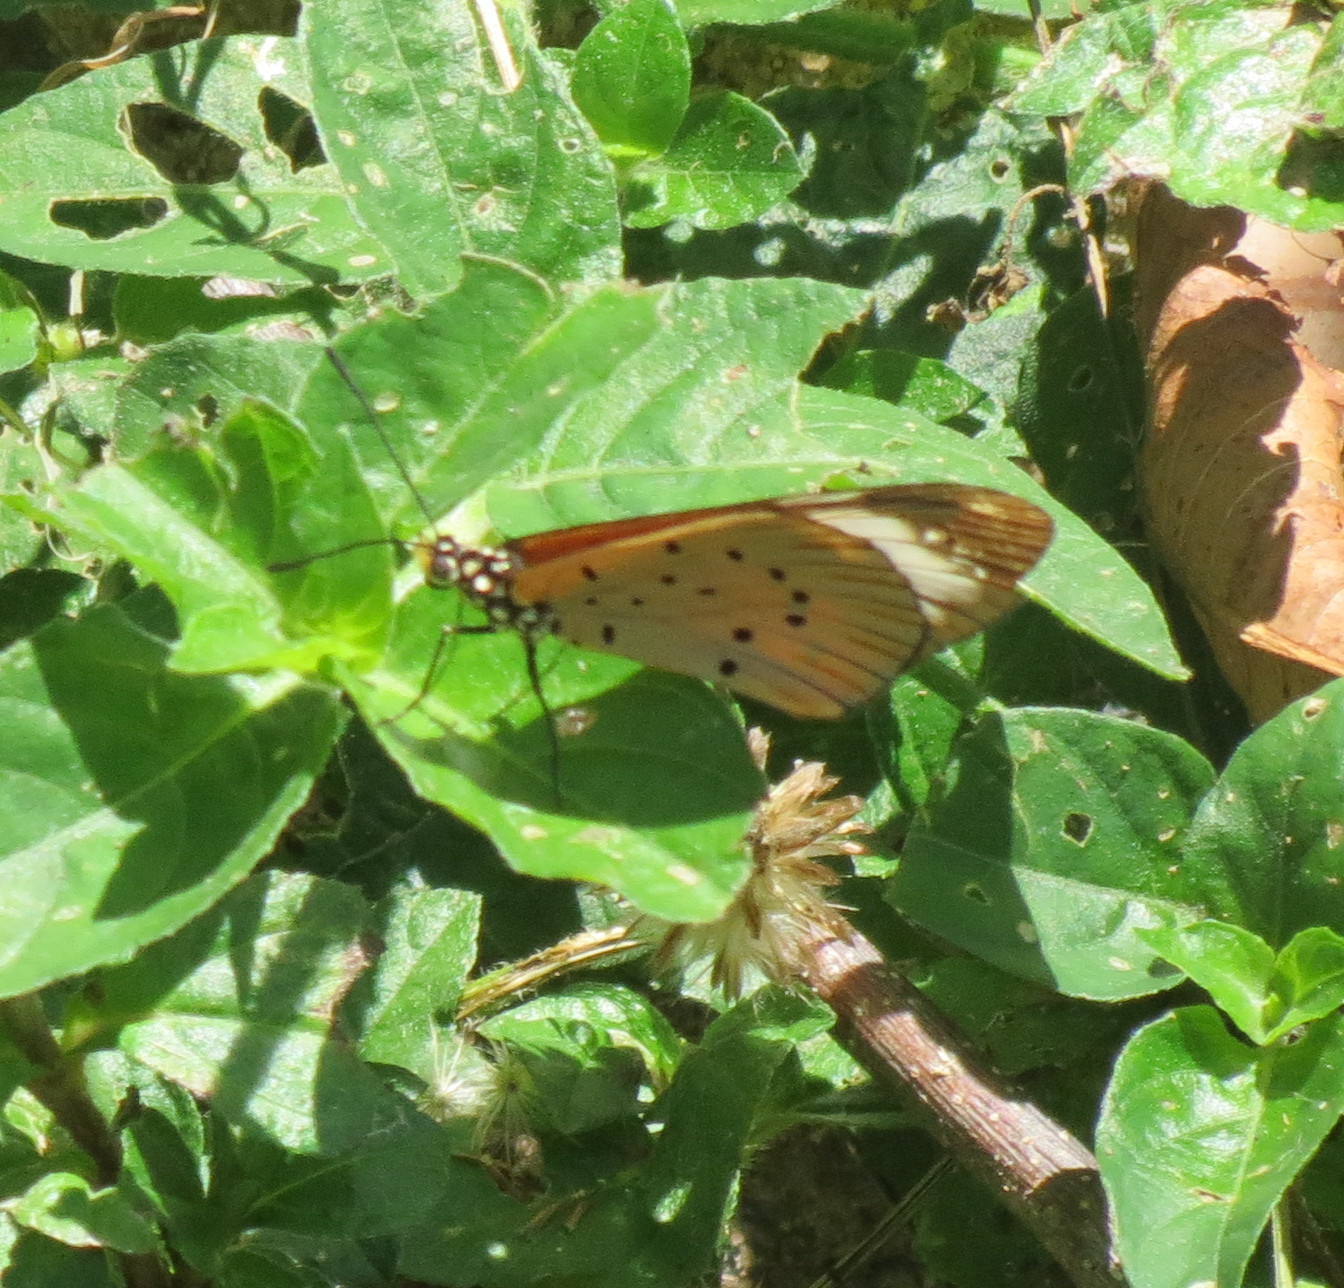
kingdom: Animalia
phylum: Arthropoda
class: Insecta
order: Lepidoptera
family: Nymphalidae
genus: Acraea
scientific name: Acraea Telchinia encedon
